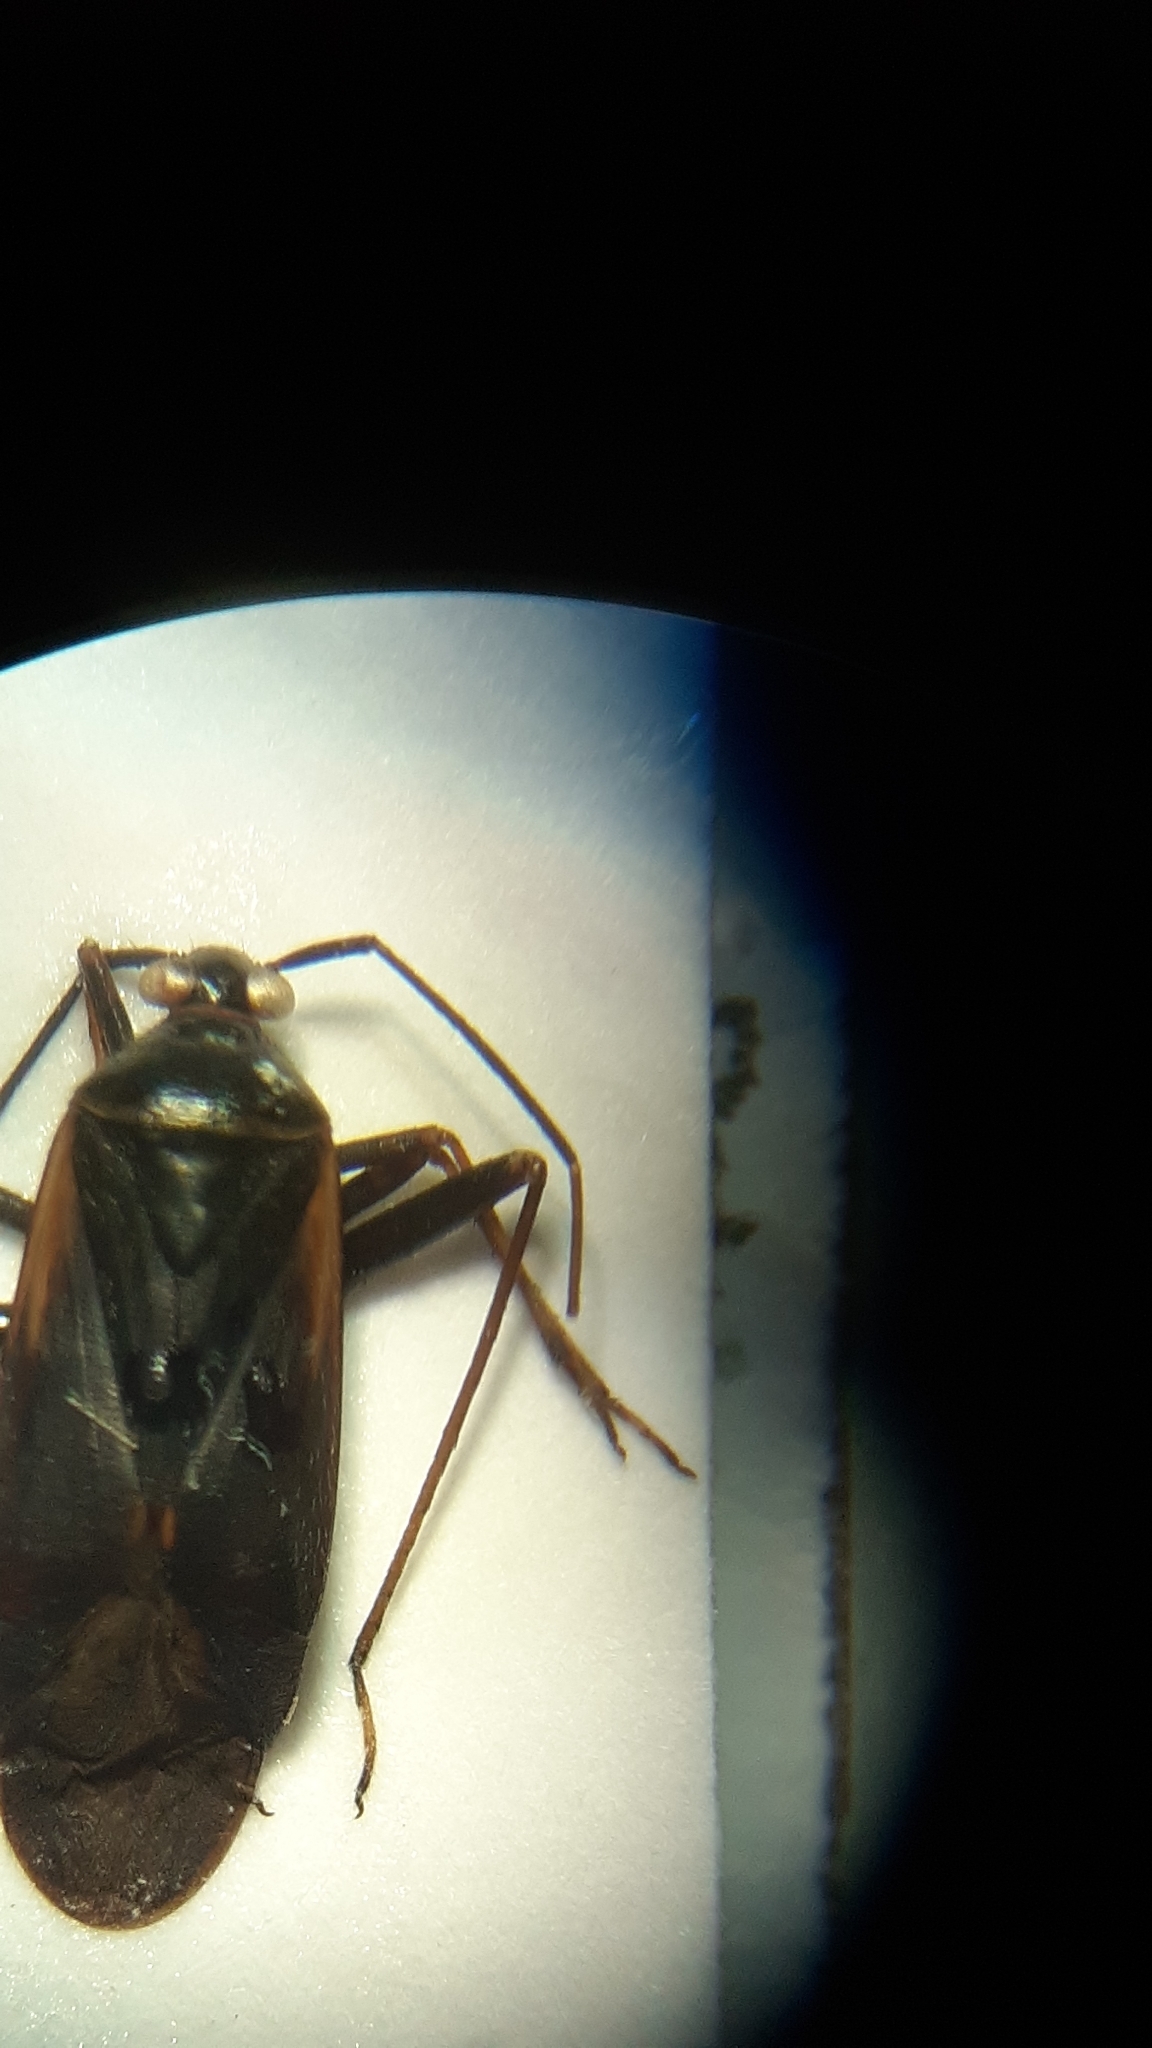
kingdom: Animalia
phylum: Arthropoda
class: Insecta
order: Hemiptera
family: Miridae
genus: Adelphocoris
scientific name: Adelphocoris seticornis
